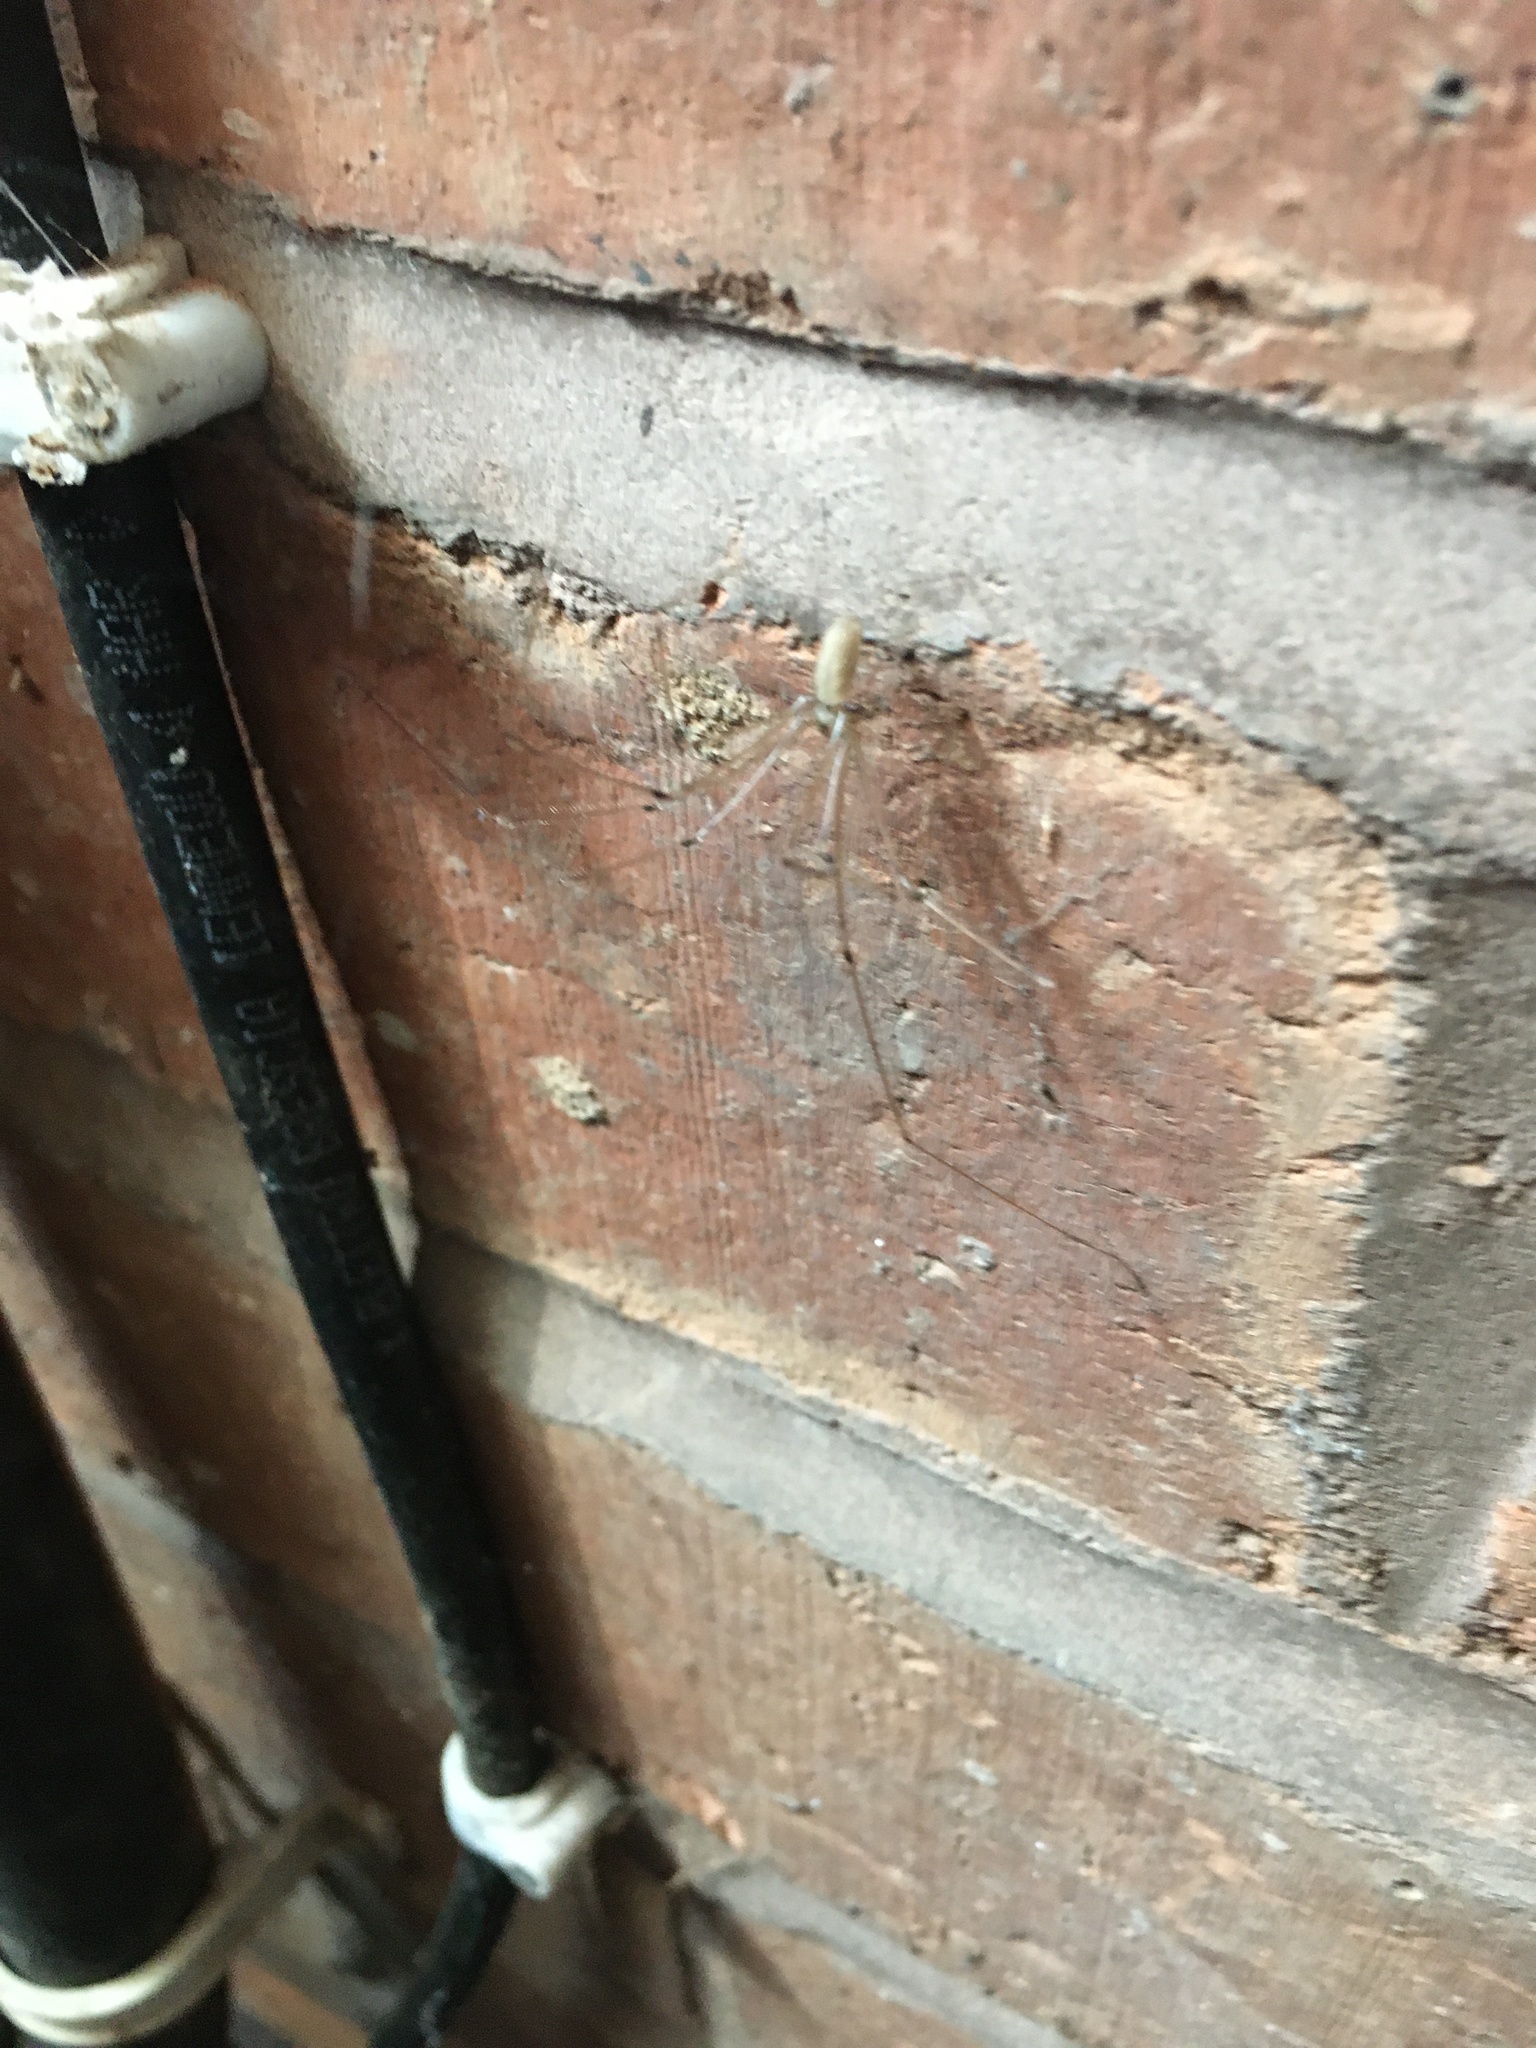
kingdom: Animalia
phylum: Arthropoda
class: Arachnida
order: Araneae
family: Pholcidae
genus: Pholcus
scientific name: Pholcus phalangioides
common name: Longbodied cellar spider
